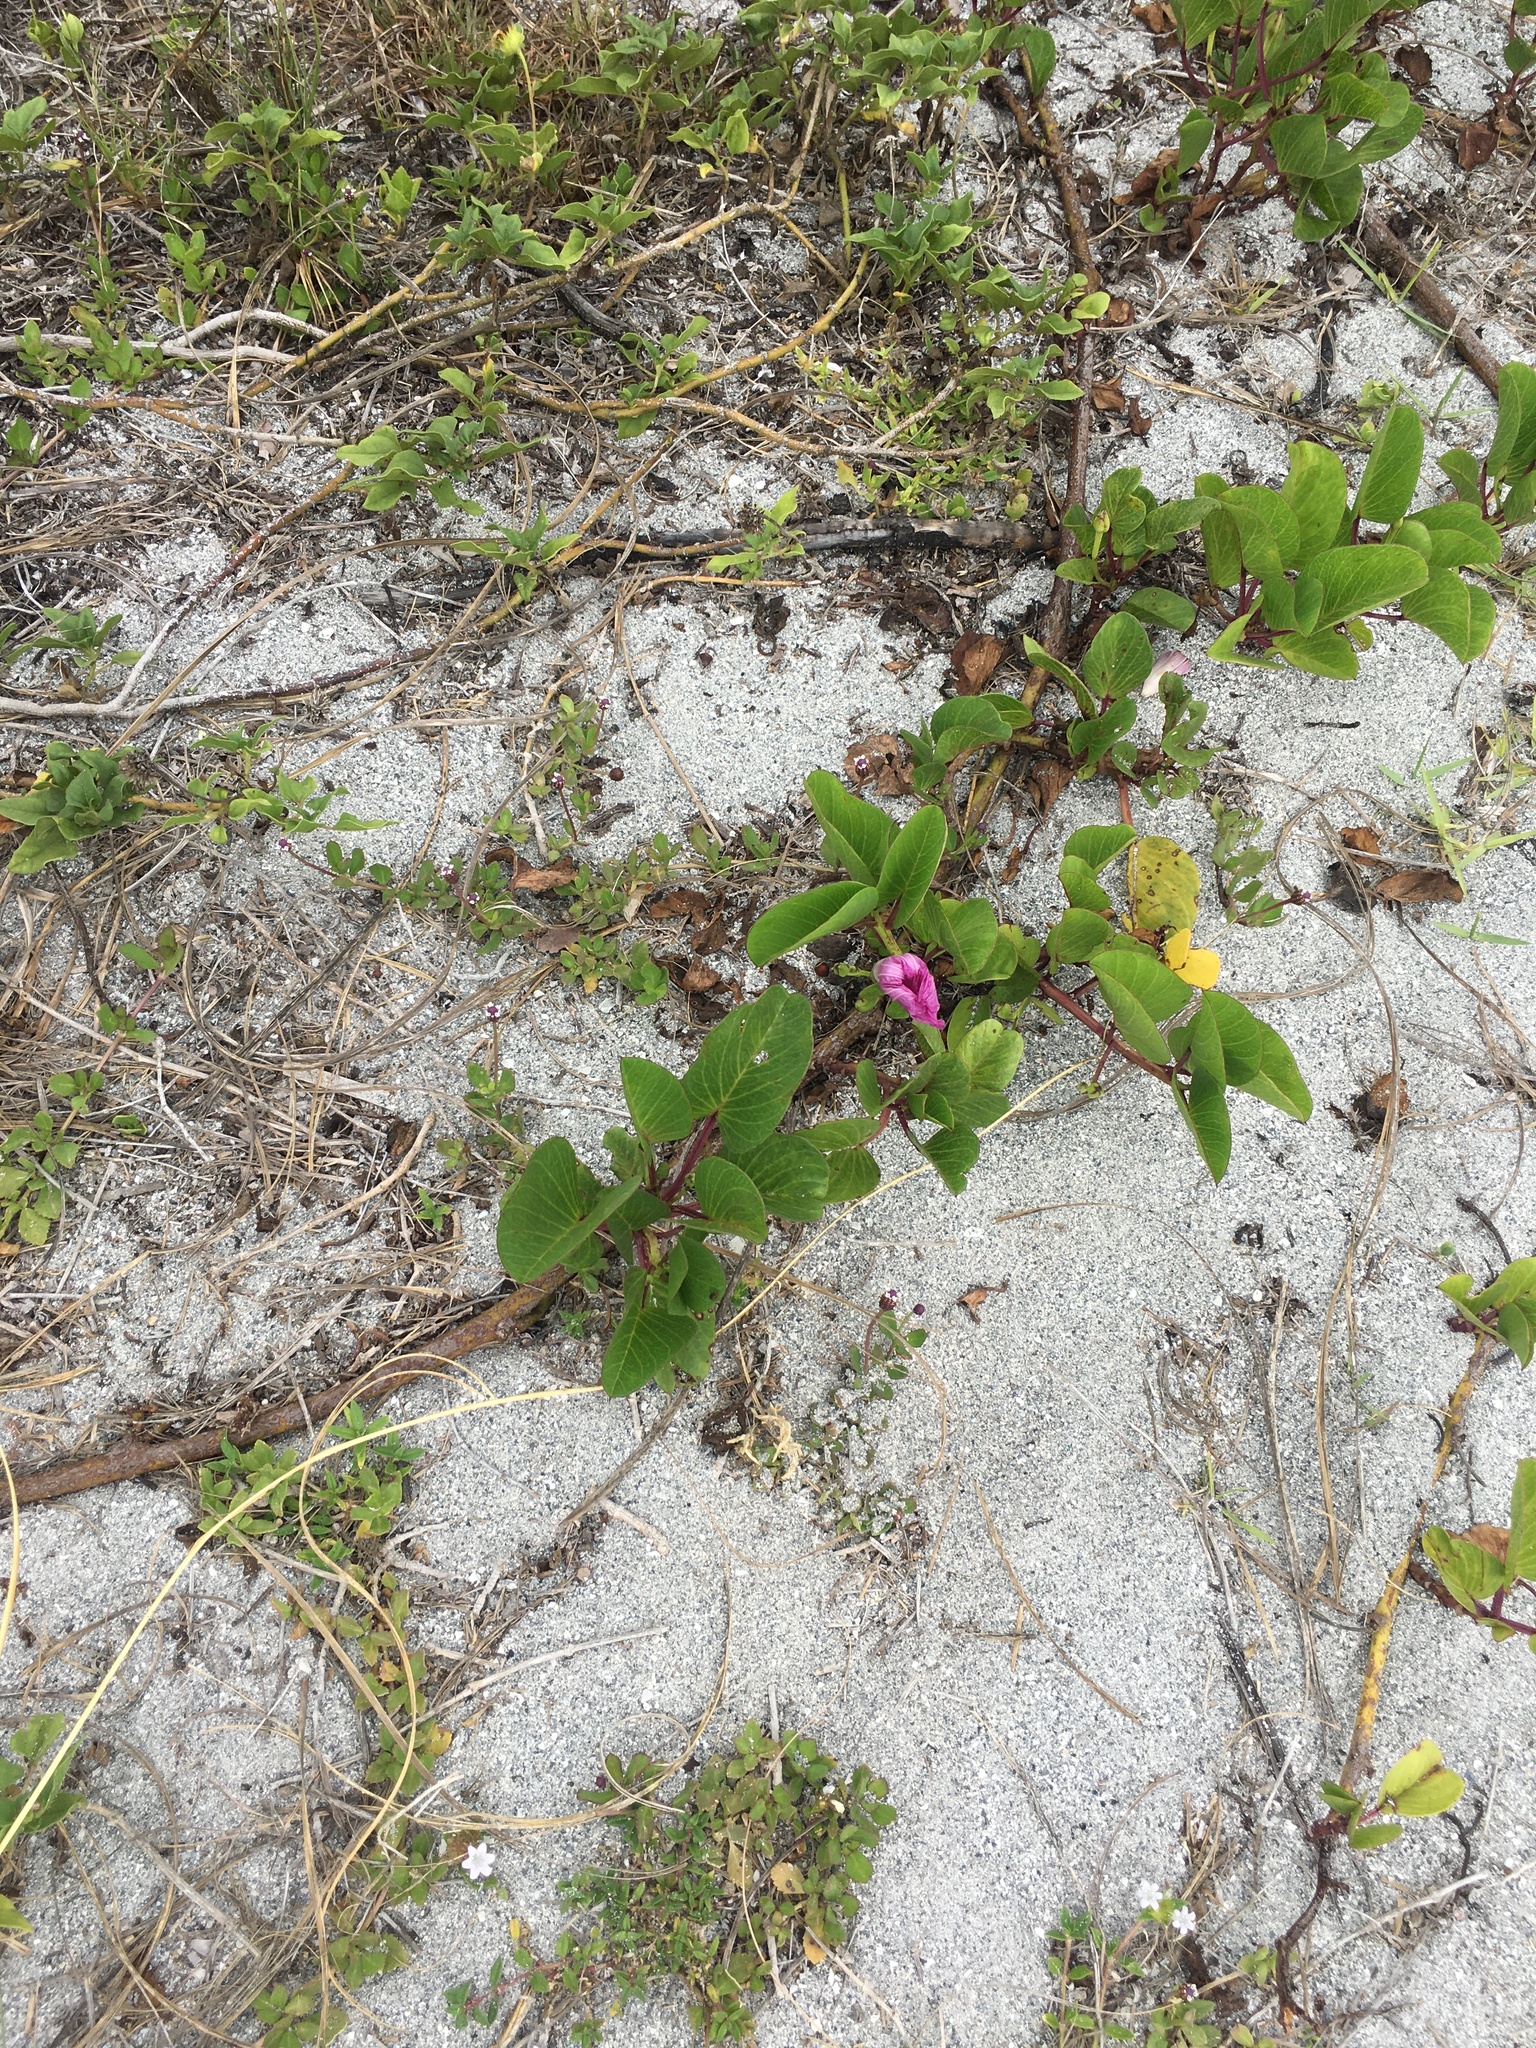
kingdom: Plantae
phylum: Tracheophyta
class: Magnoliopsida
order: Solanales
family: Convolvulaceae
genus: Ipomoea
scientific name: Ipomoea pes-caprae
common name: Beach morning glory
